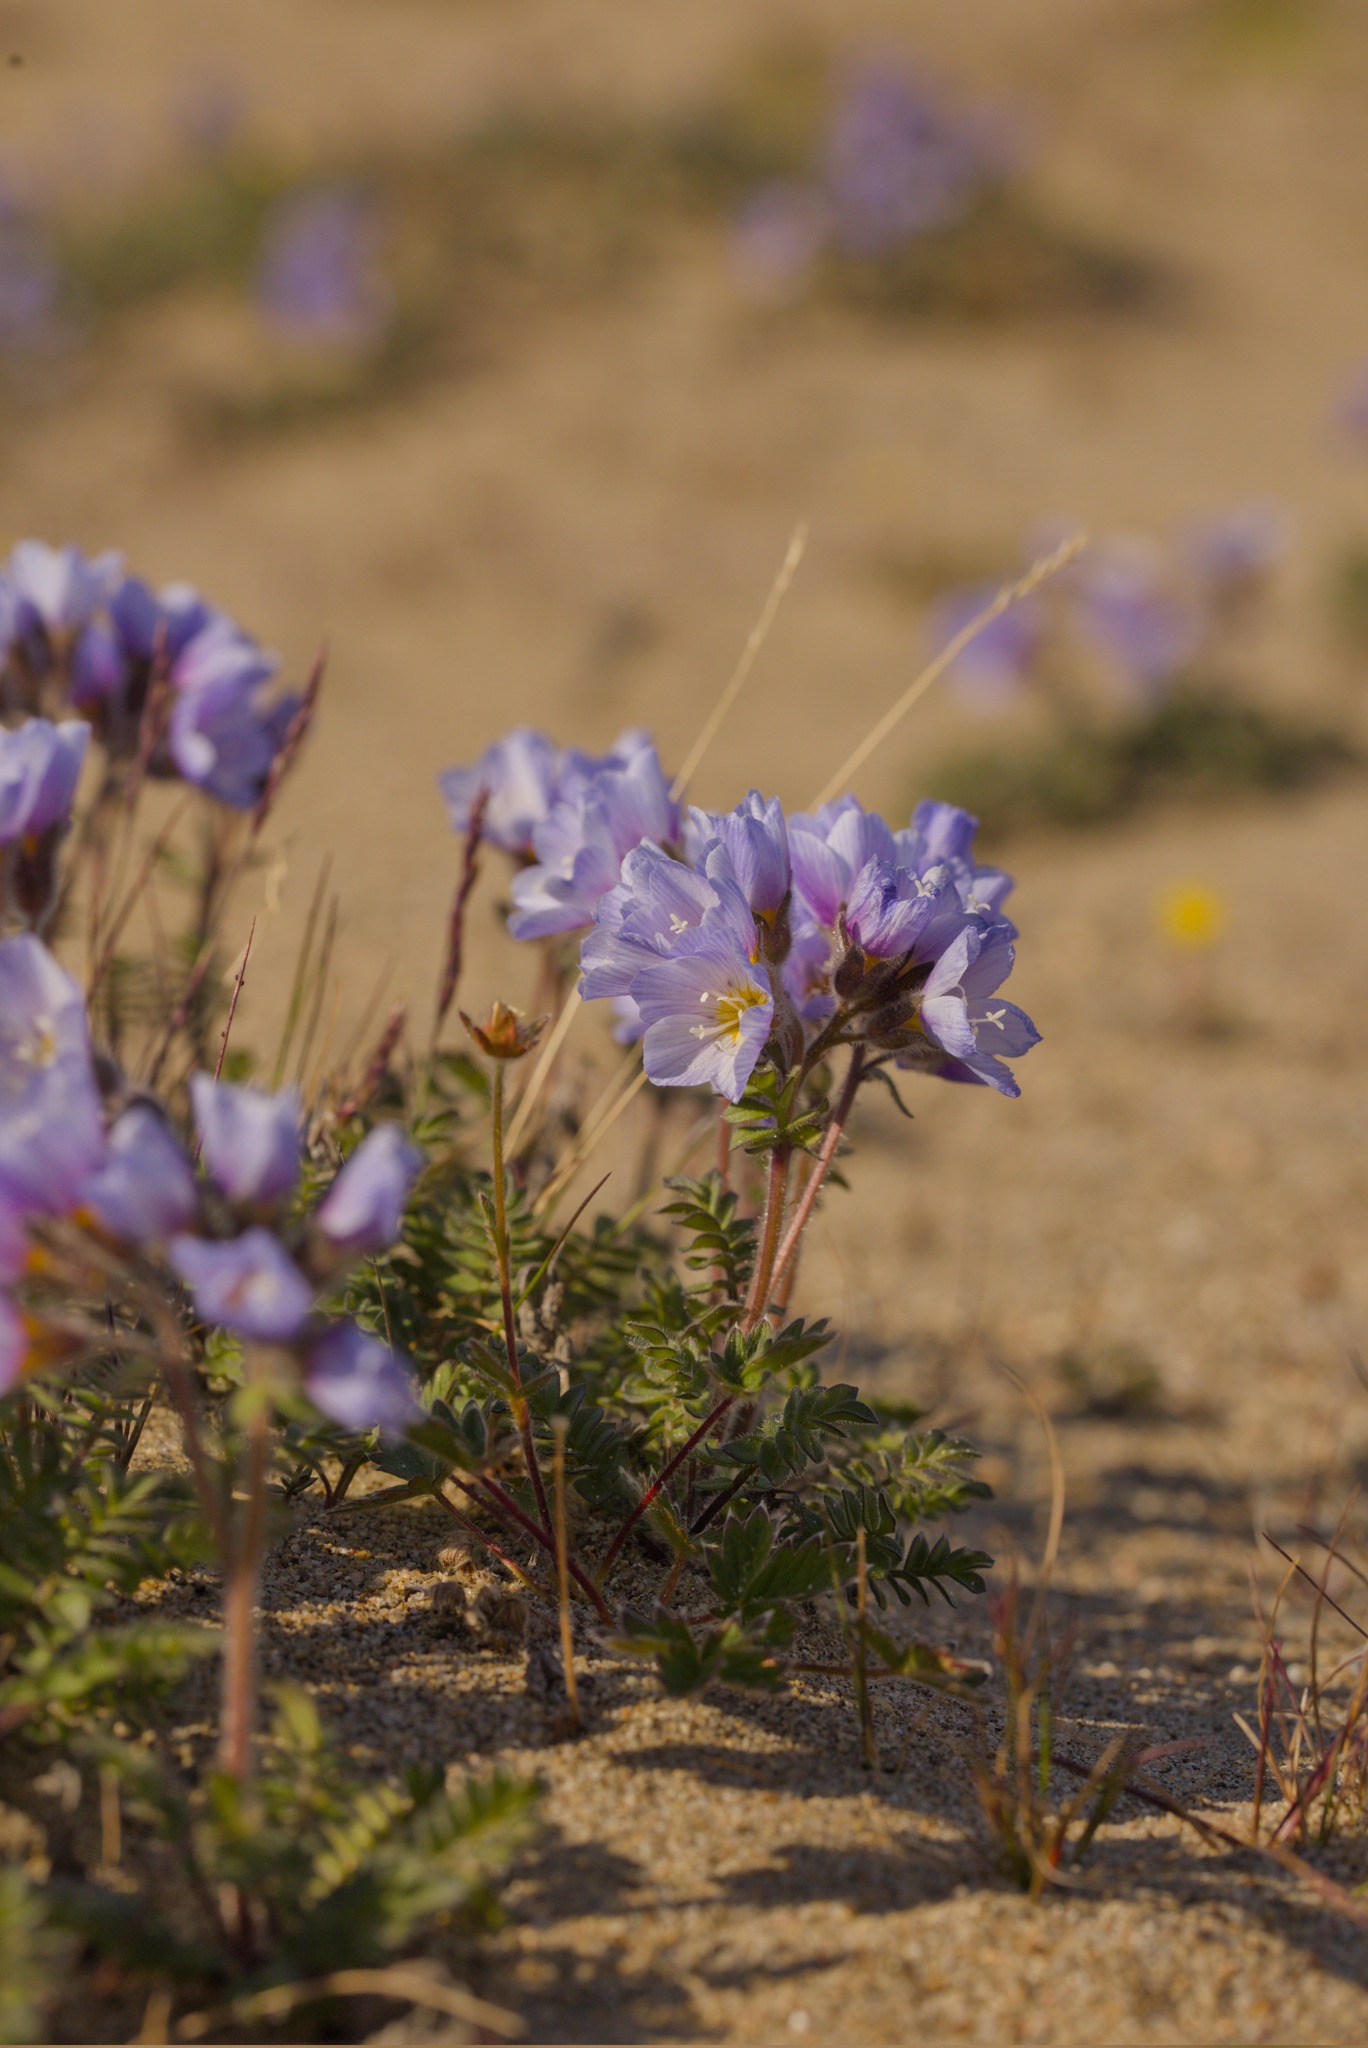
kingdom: Plantae
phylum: Tracheophyta
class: Magnoliopsida
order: Ericales
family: Polemoniaceae
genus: Polemonium
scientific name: Polemonium boreale
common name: Boreal jacob's-ladder
